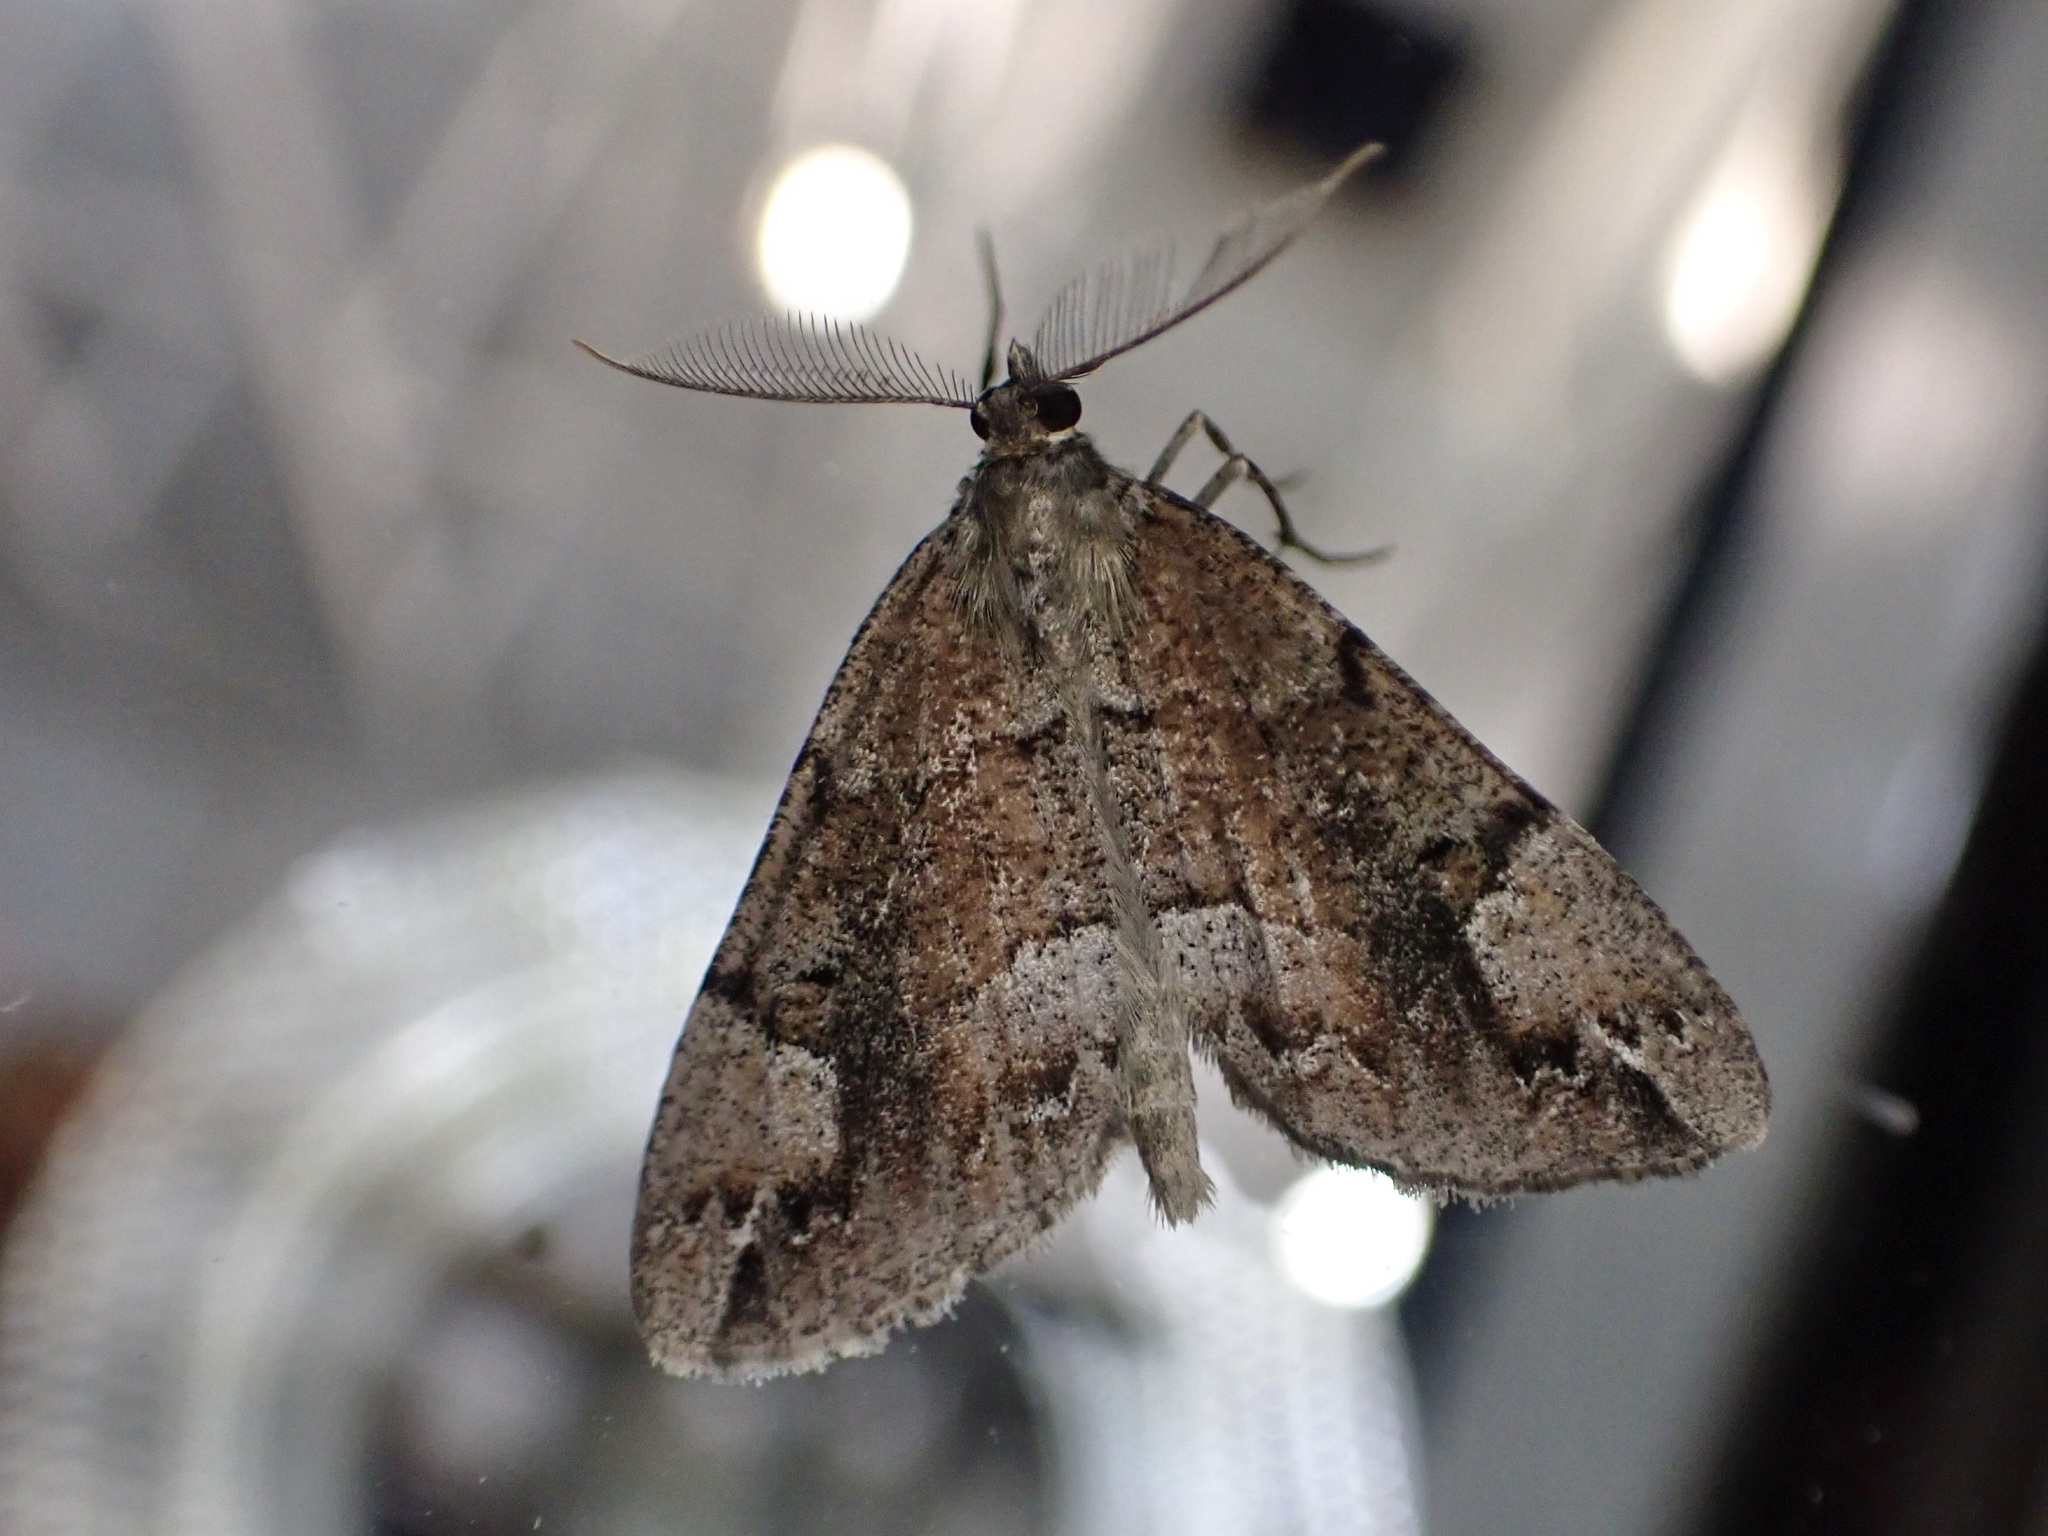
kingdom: Animalia
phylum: Arthropoda
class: Insecta
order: Lepidoptera
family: Geometridae
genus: Pseudocoremia
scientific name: Pseudocoremia productata
